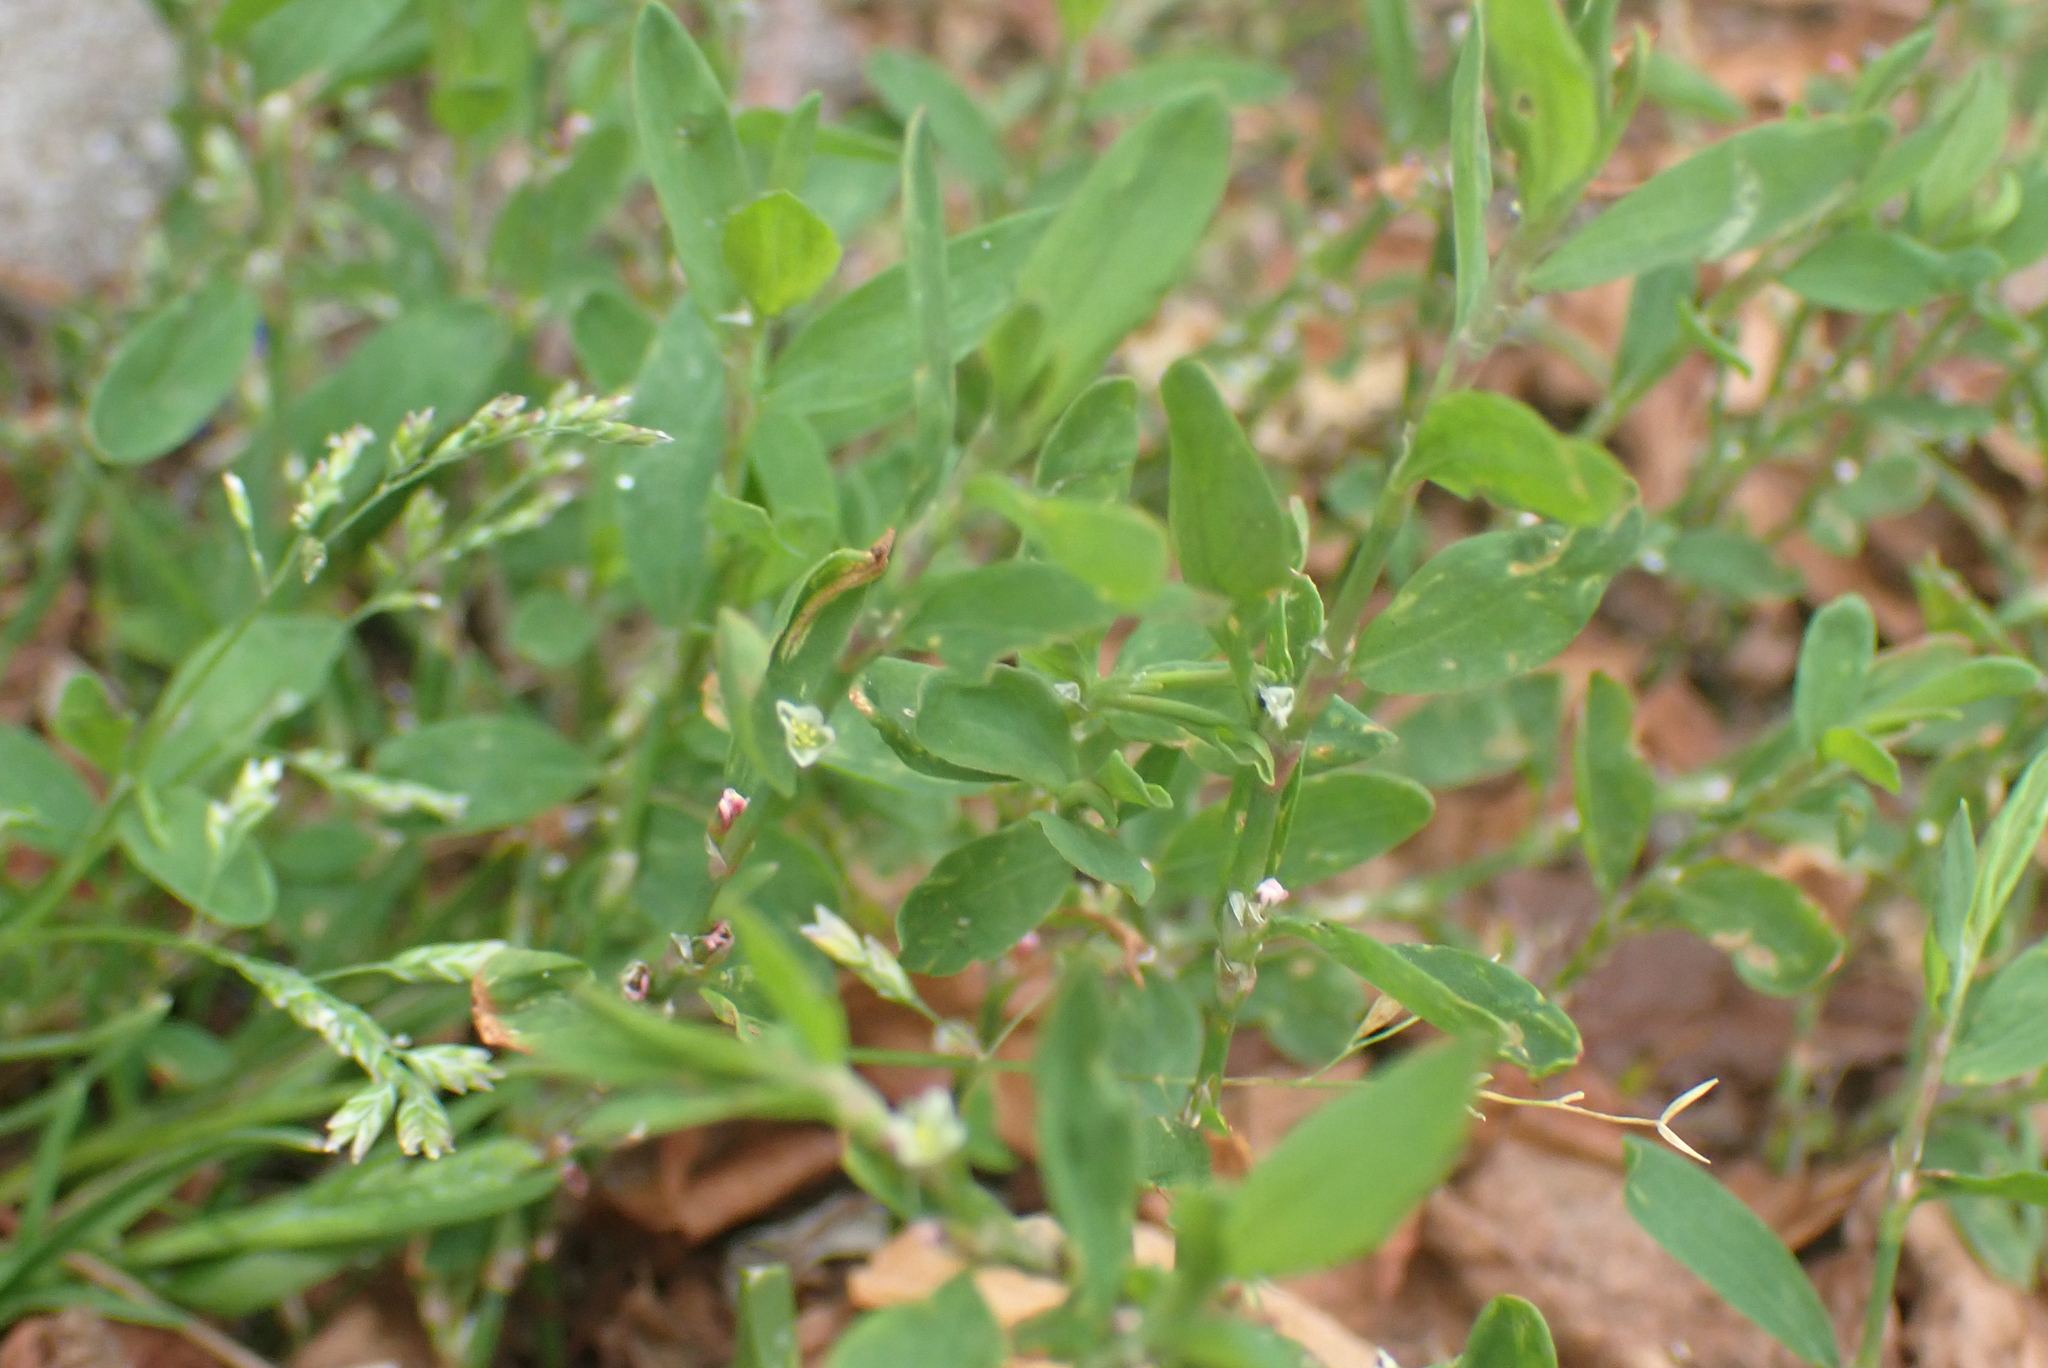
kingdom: Plantae
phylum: Tracheophyta
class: Magnoliopsida
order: Caryophyllales
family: Polygonaceae
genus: Polygonum
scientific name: Polygonum aviculare
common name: Prostrate knotweed
